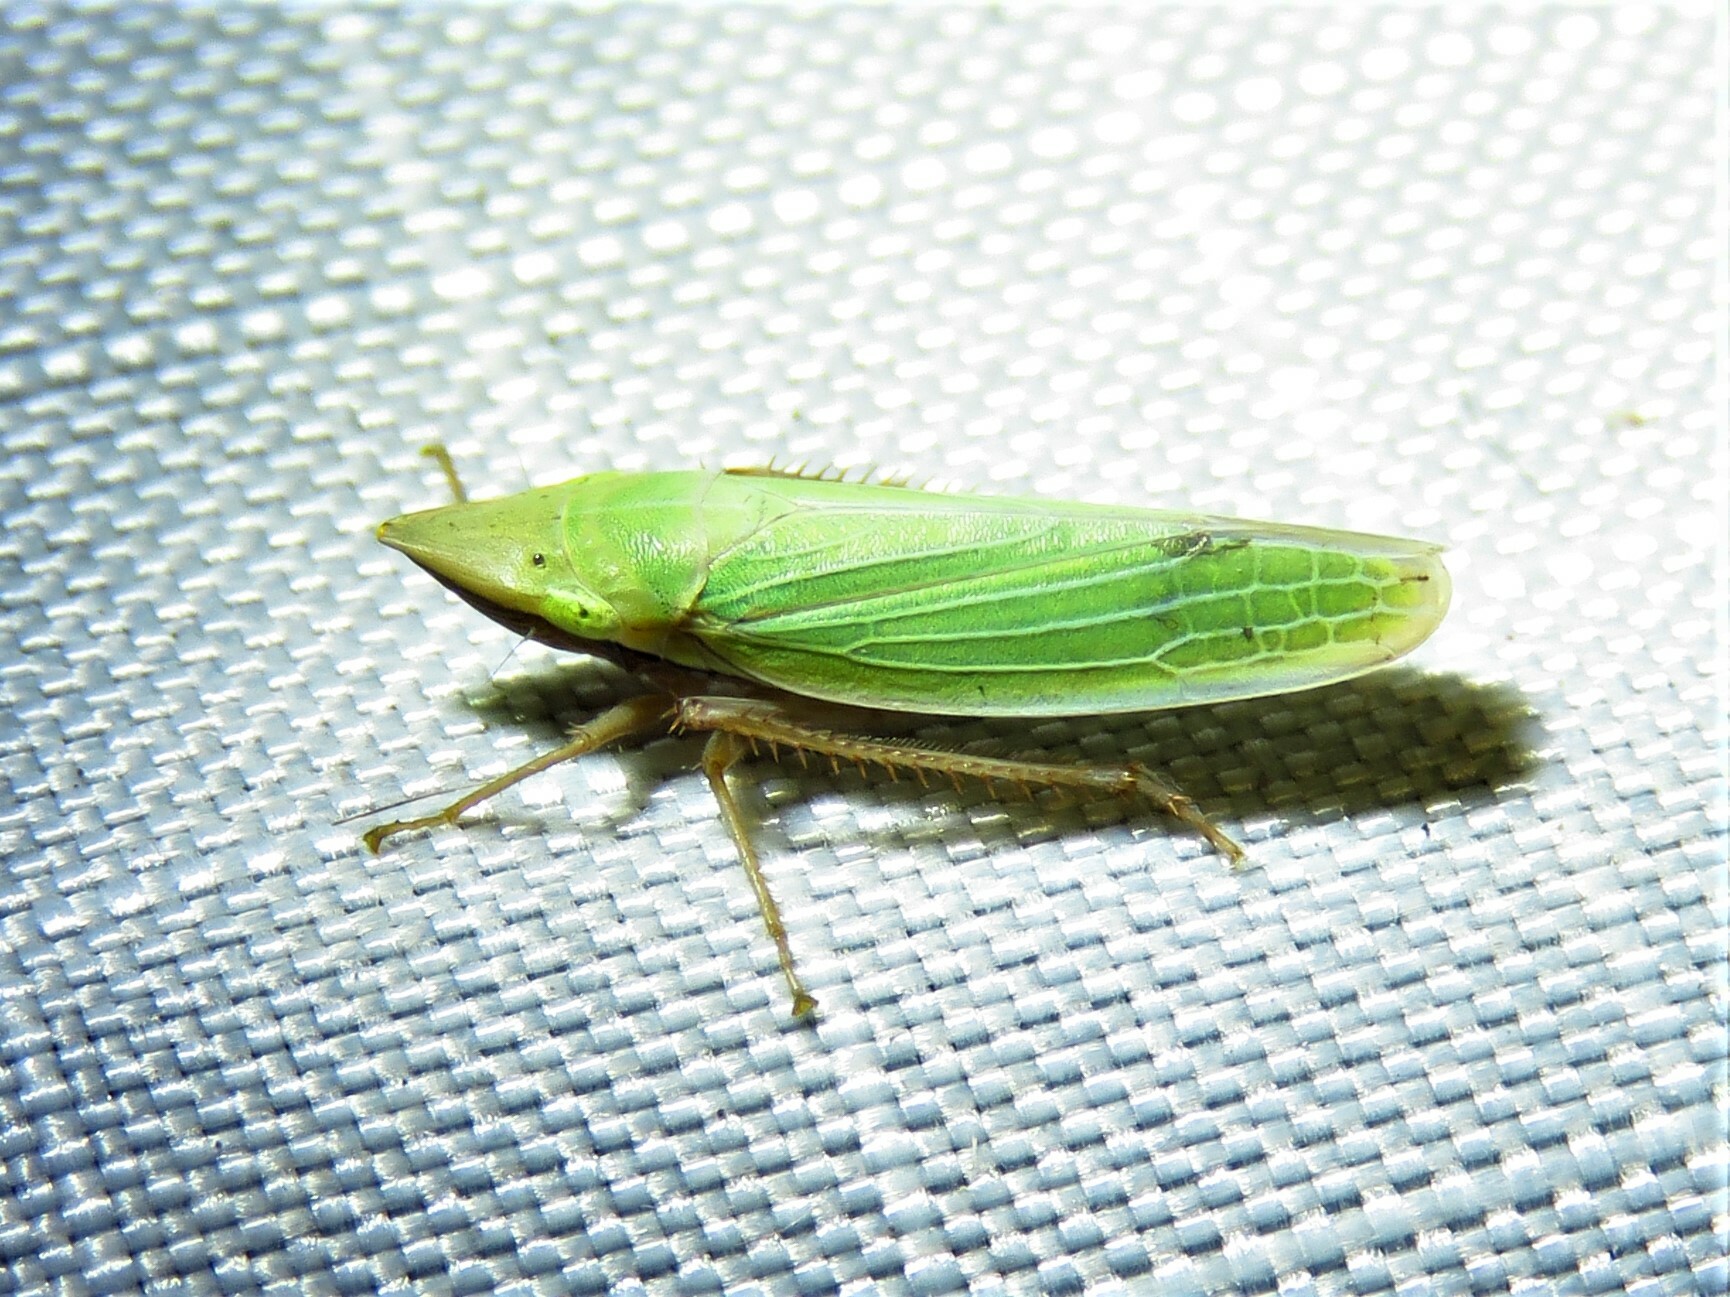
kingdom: Animalia
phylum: Arthropoda
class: Insecta
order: Hemiptera
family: Cicadellidae
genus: Draeculacephala
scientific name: Draeculacephala antica
